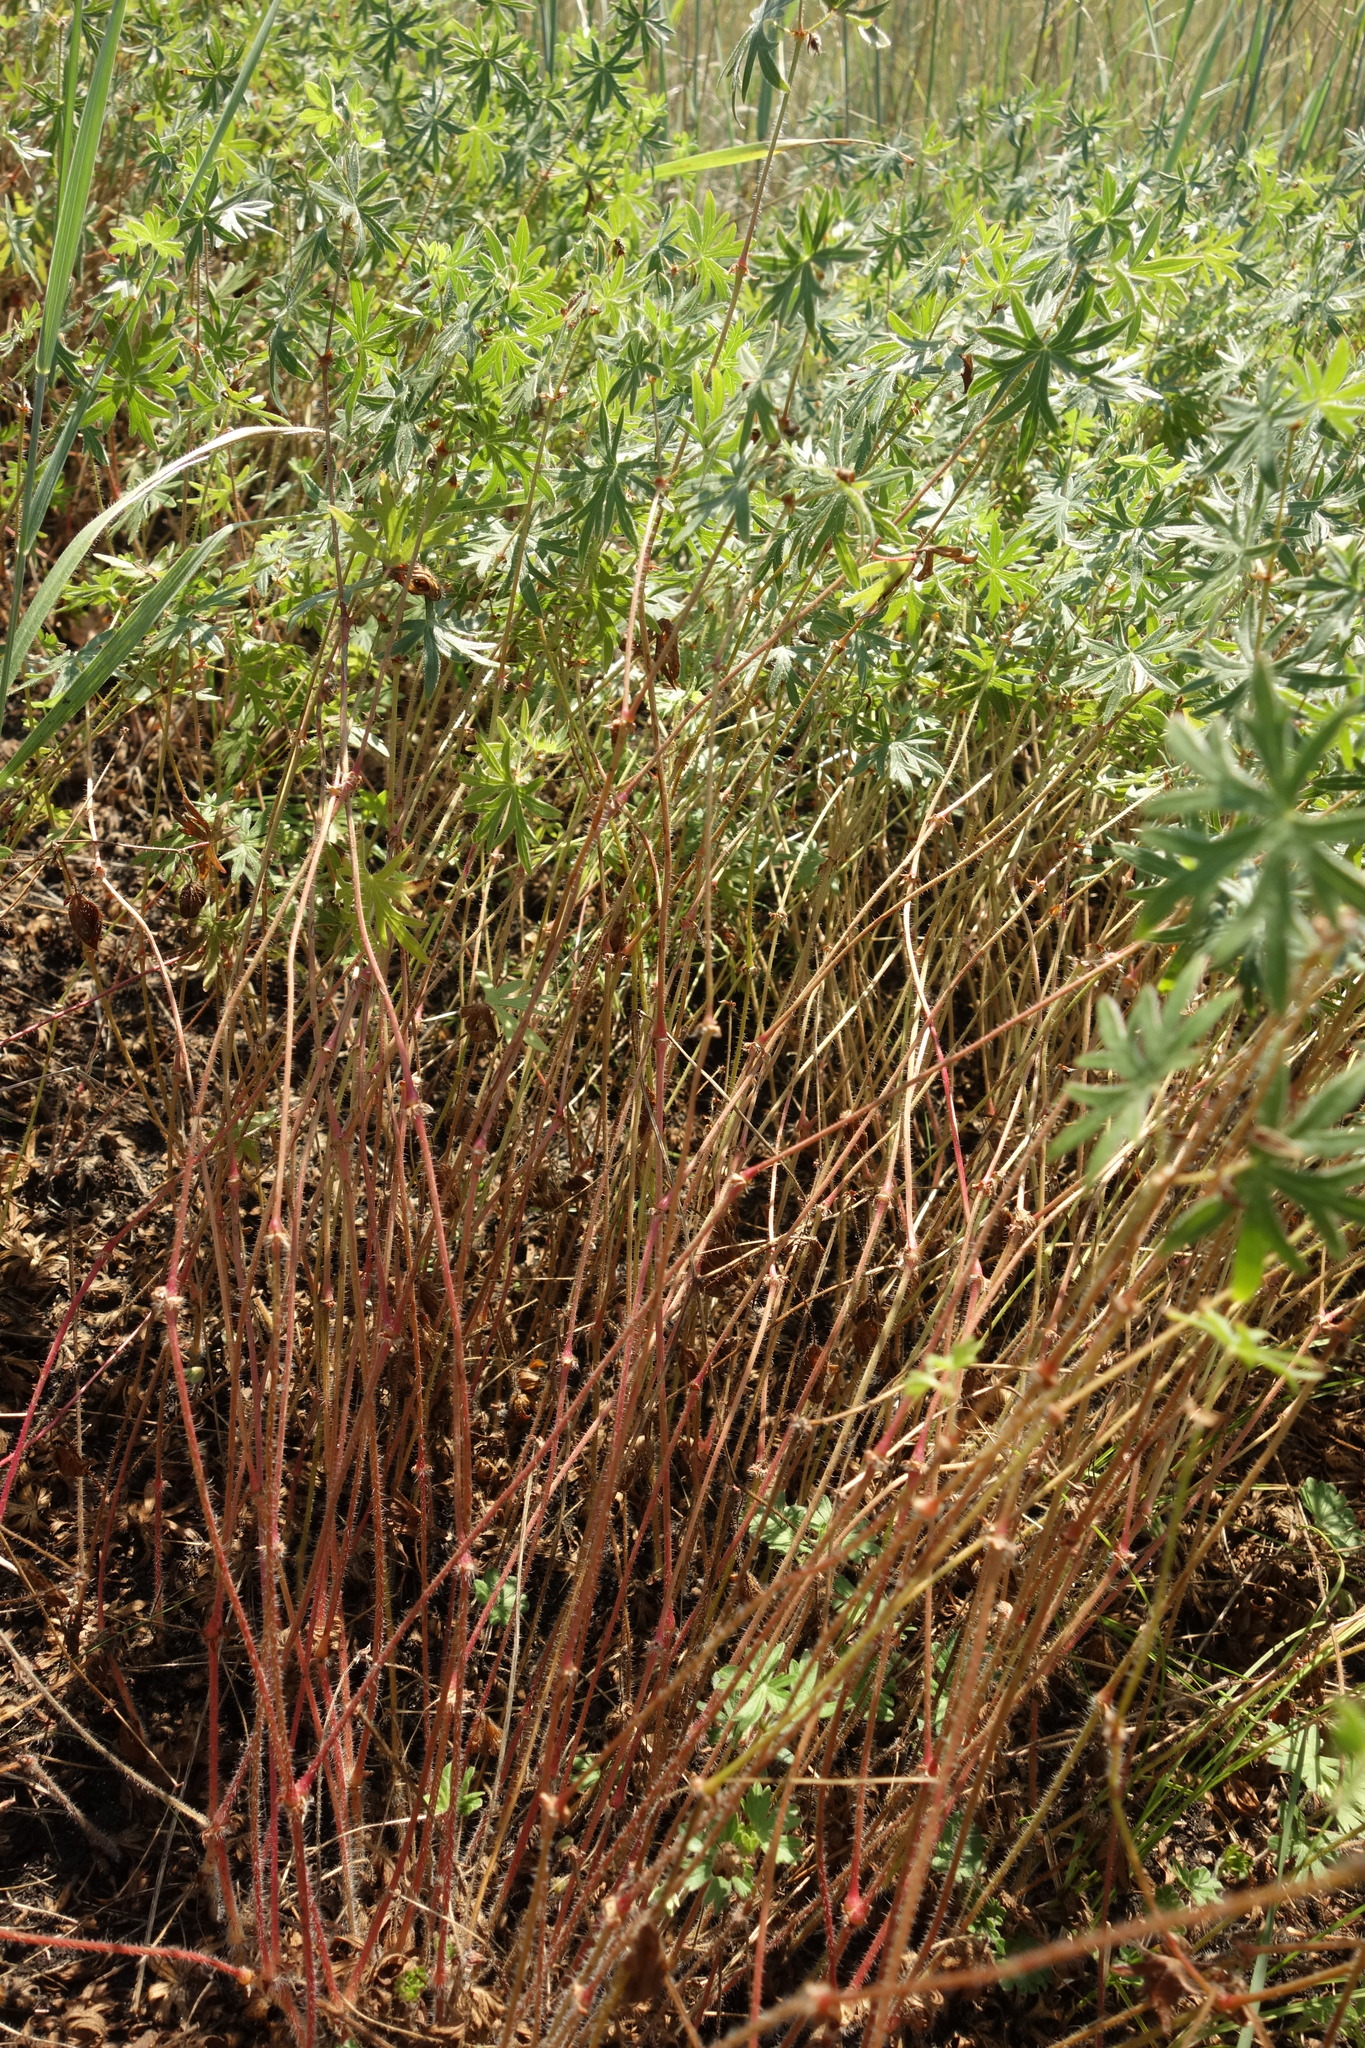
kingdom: Plantae
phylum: Tracheophyta
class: Magnoliopsida
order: Geraniales
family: Geraniaceae
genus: Geranium
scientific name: Geranium sanguineum
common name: Bloody crane's-bill
